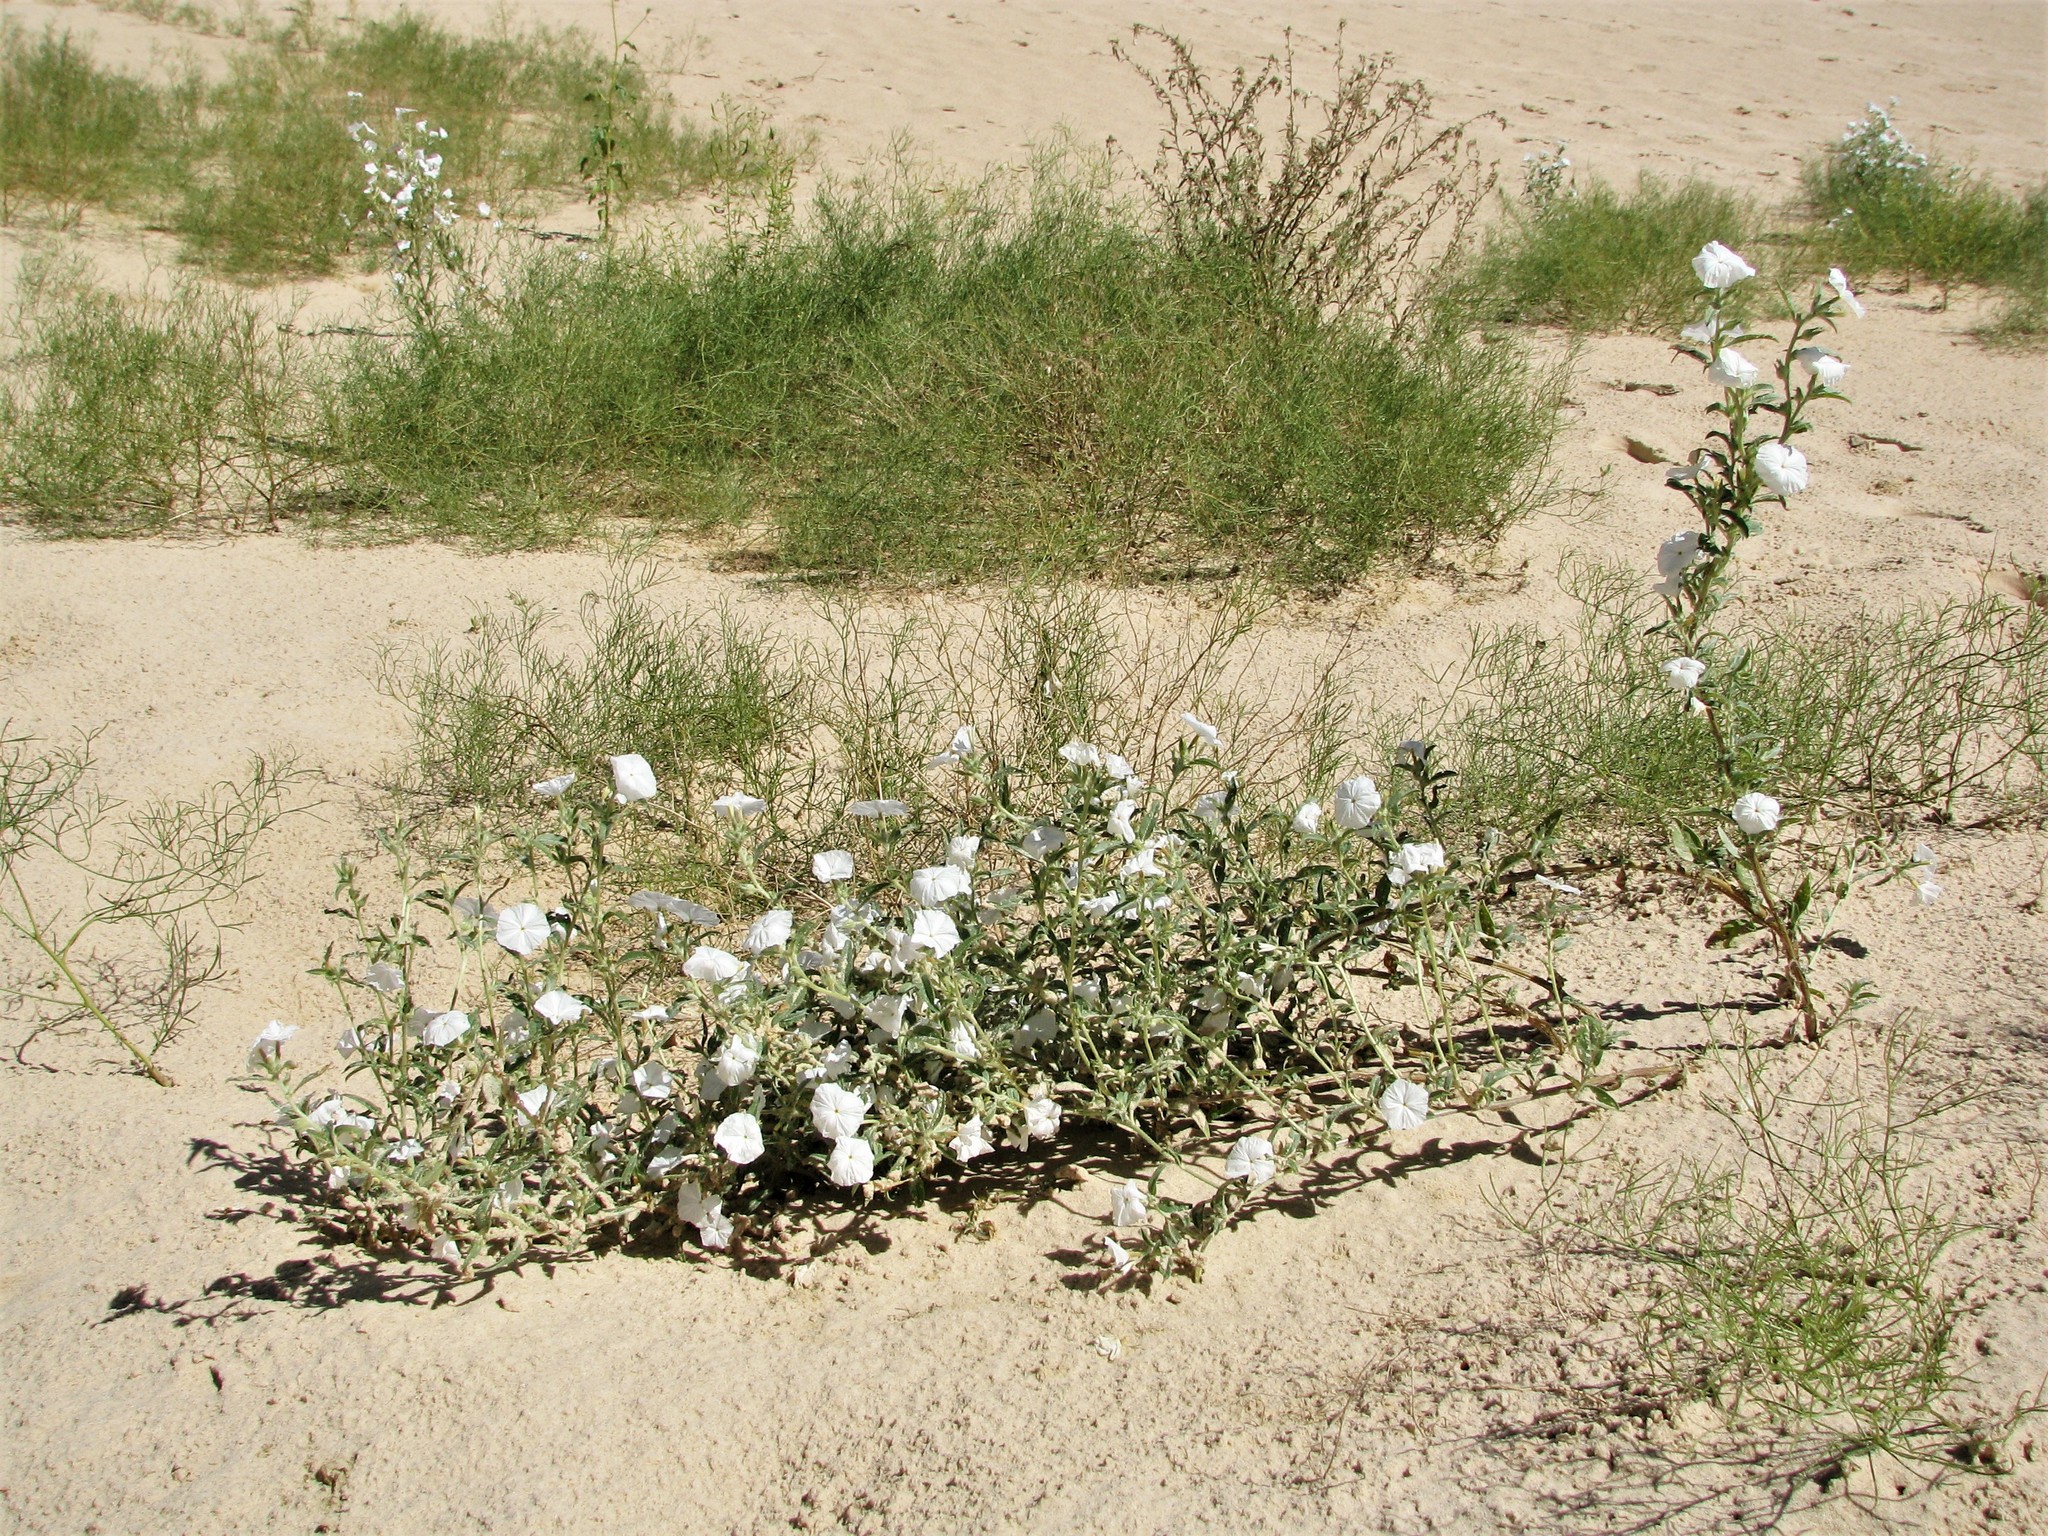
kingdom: Plantae
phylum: Tracheophyta
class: Magnoliopsida
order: Boraginales
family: Heliotropiaceae
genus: Euploca
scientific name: Euploca convolvulacea
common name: Bindweed heliotrope
